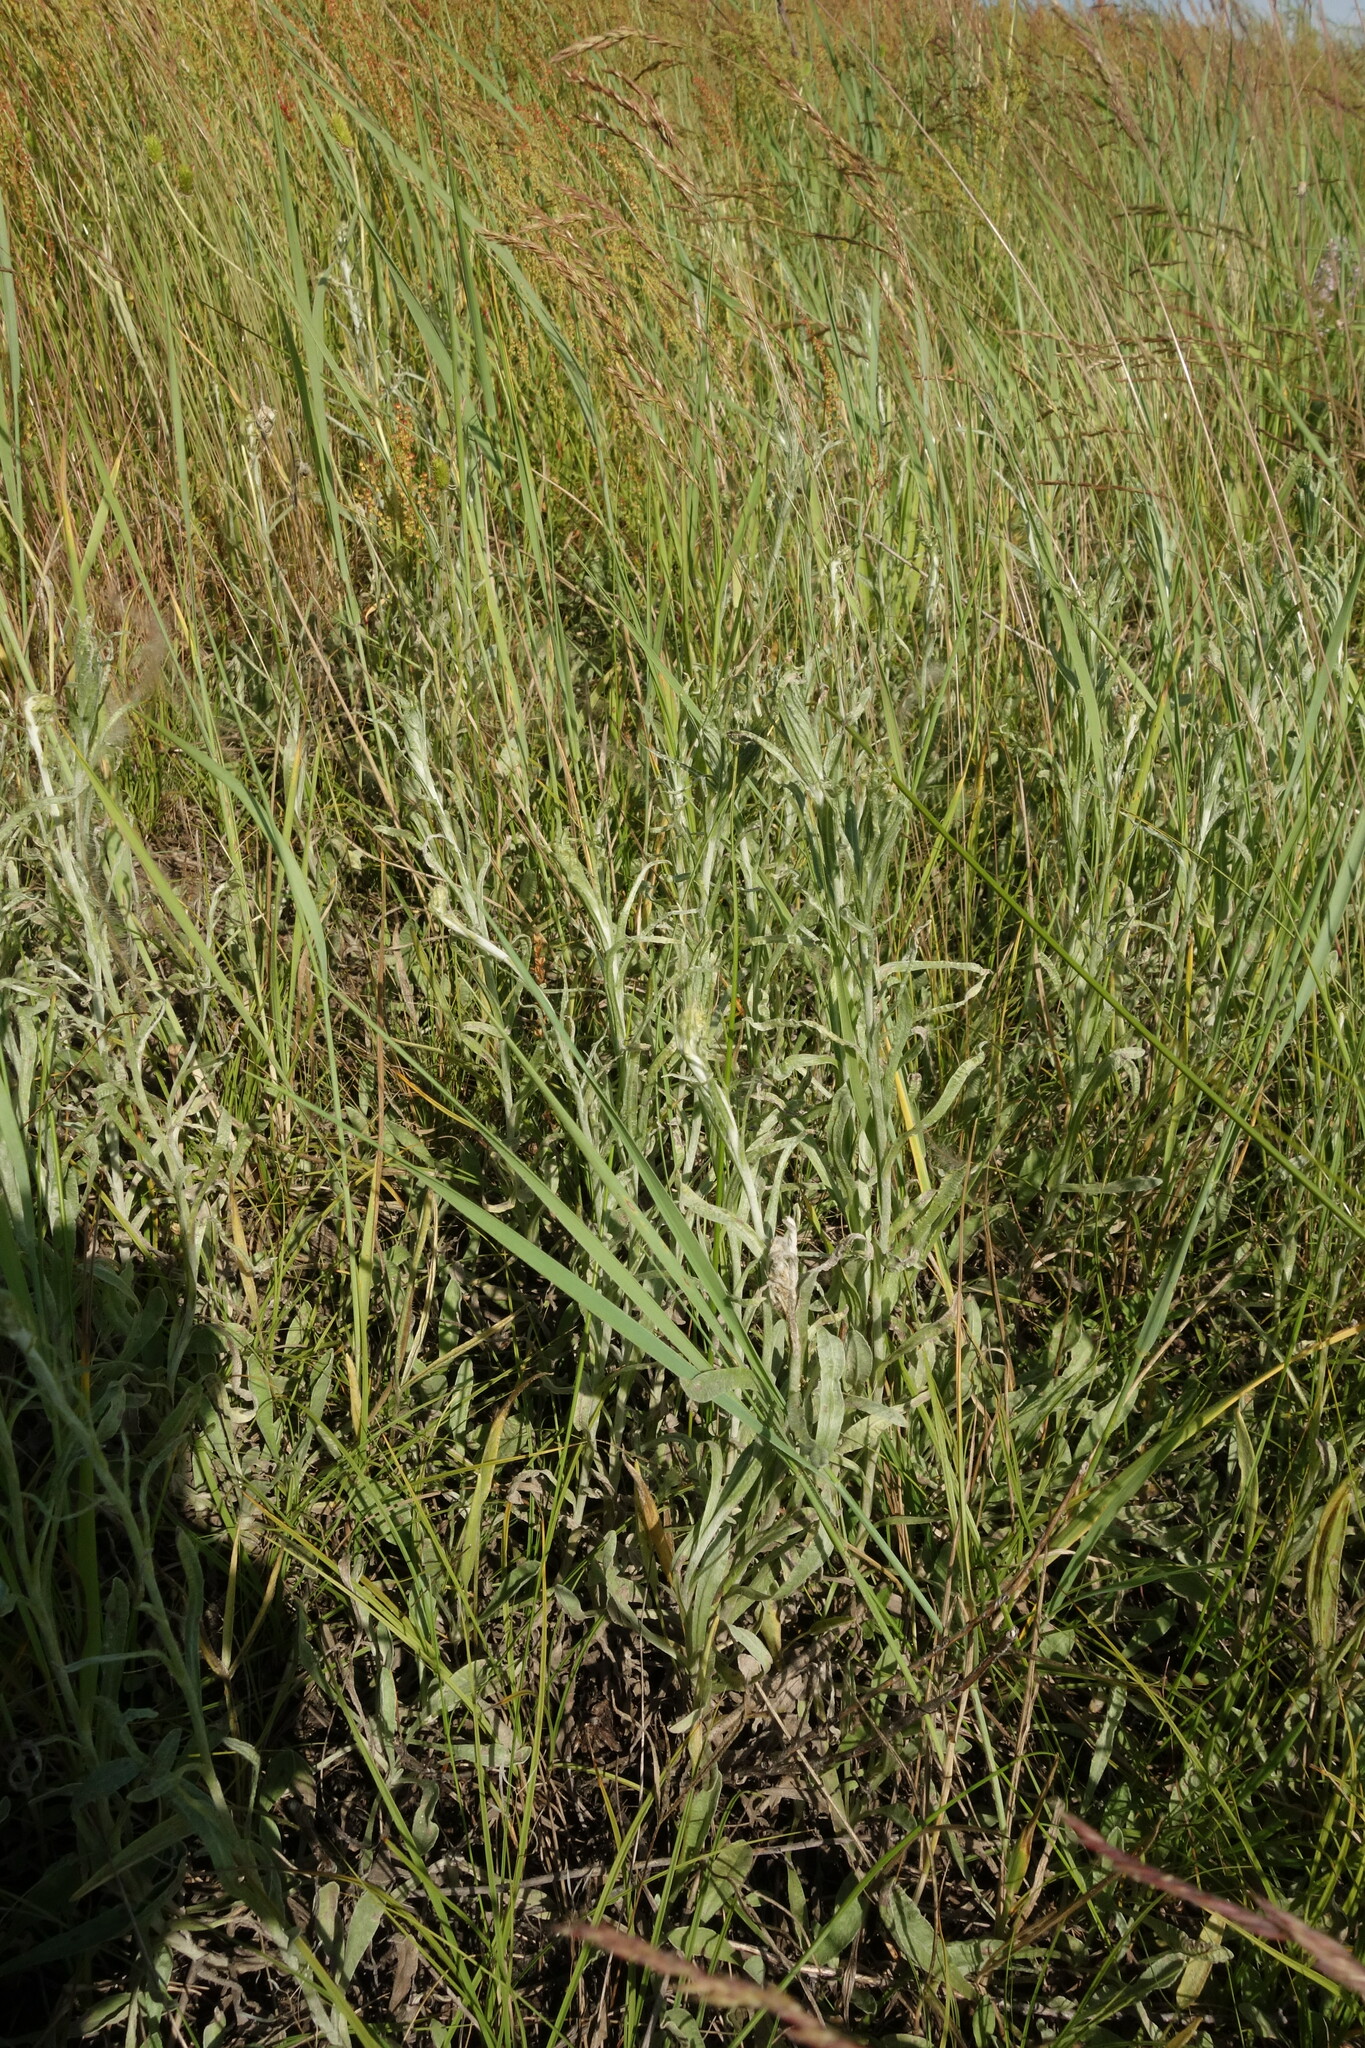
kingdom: Plantae
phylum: Tracheophyta
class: Magnoliopsida
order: Asterales
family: Asteraceae
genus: Helichrysum
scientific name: Helichrysum arenarium
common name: Strawflower
